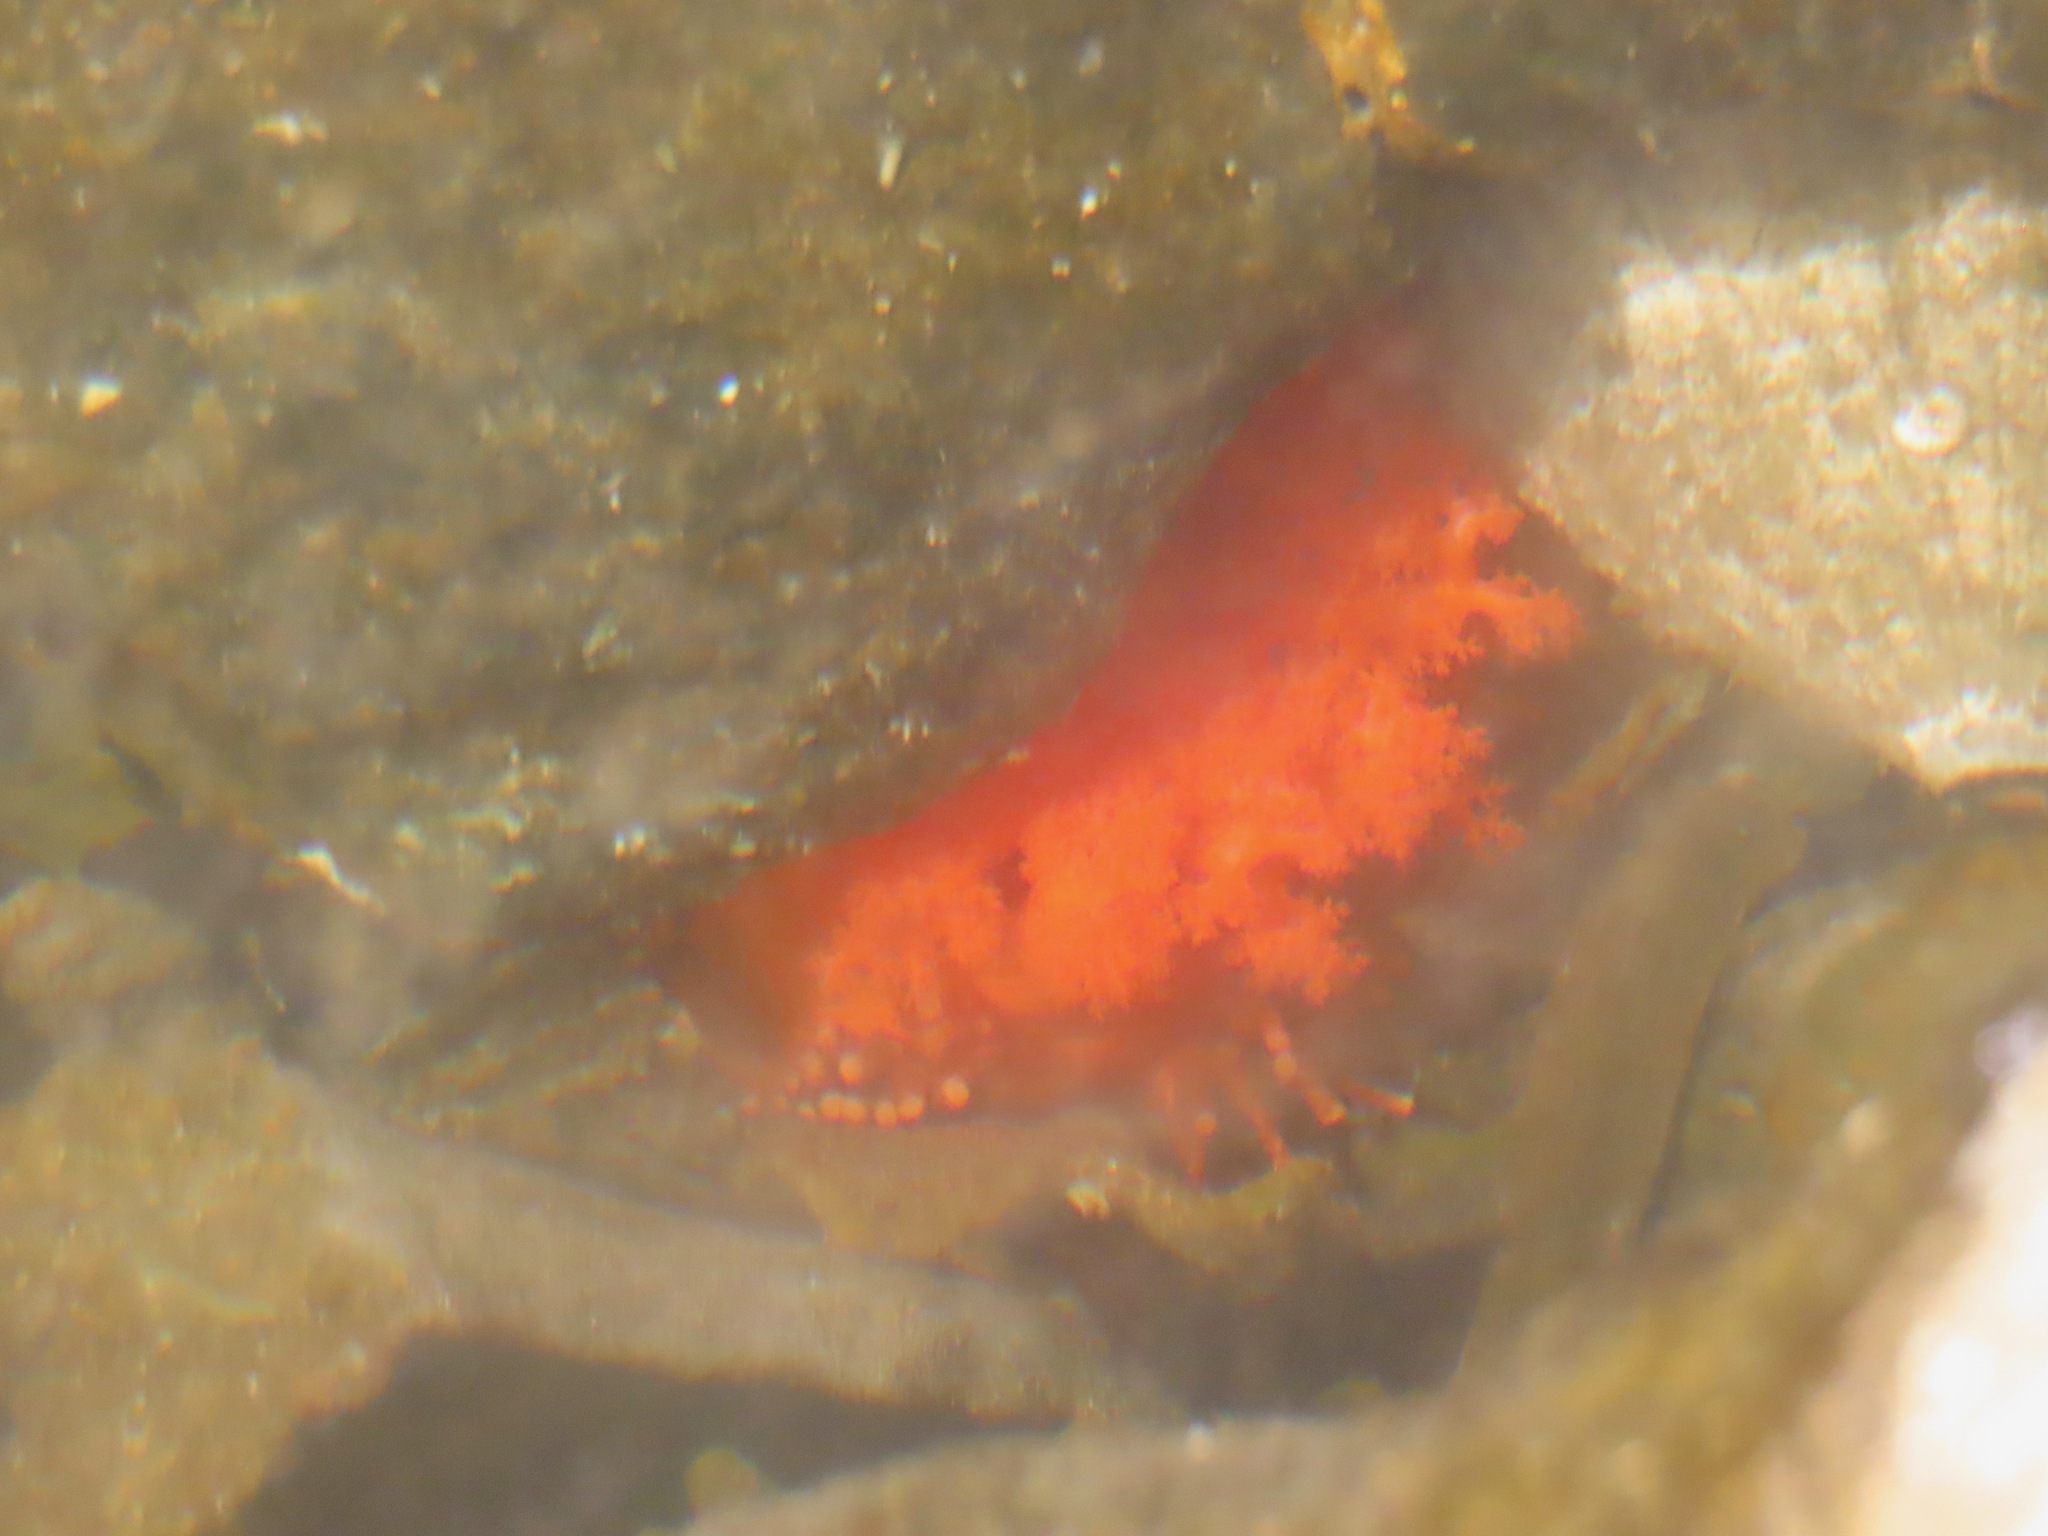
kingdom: Animalia
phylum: Echinodermata
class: Holothuroidea
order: Dendrochirotida
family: Cucumariidae
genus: Cucumaria
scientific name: Cucumaria miniata
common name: Orange sea cucumber
